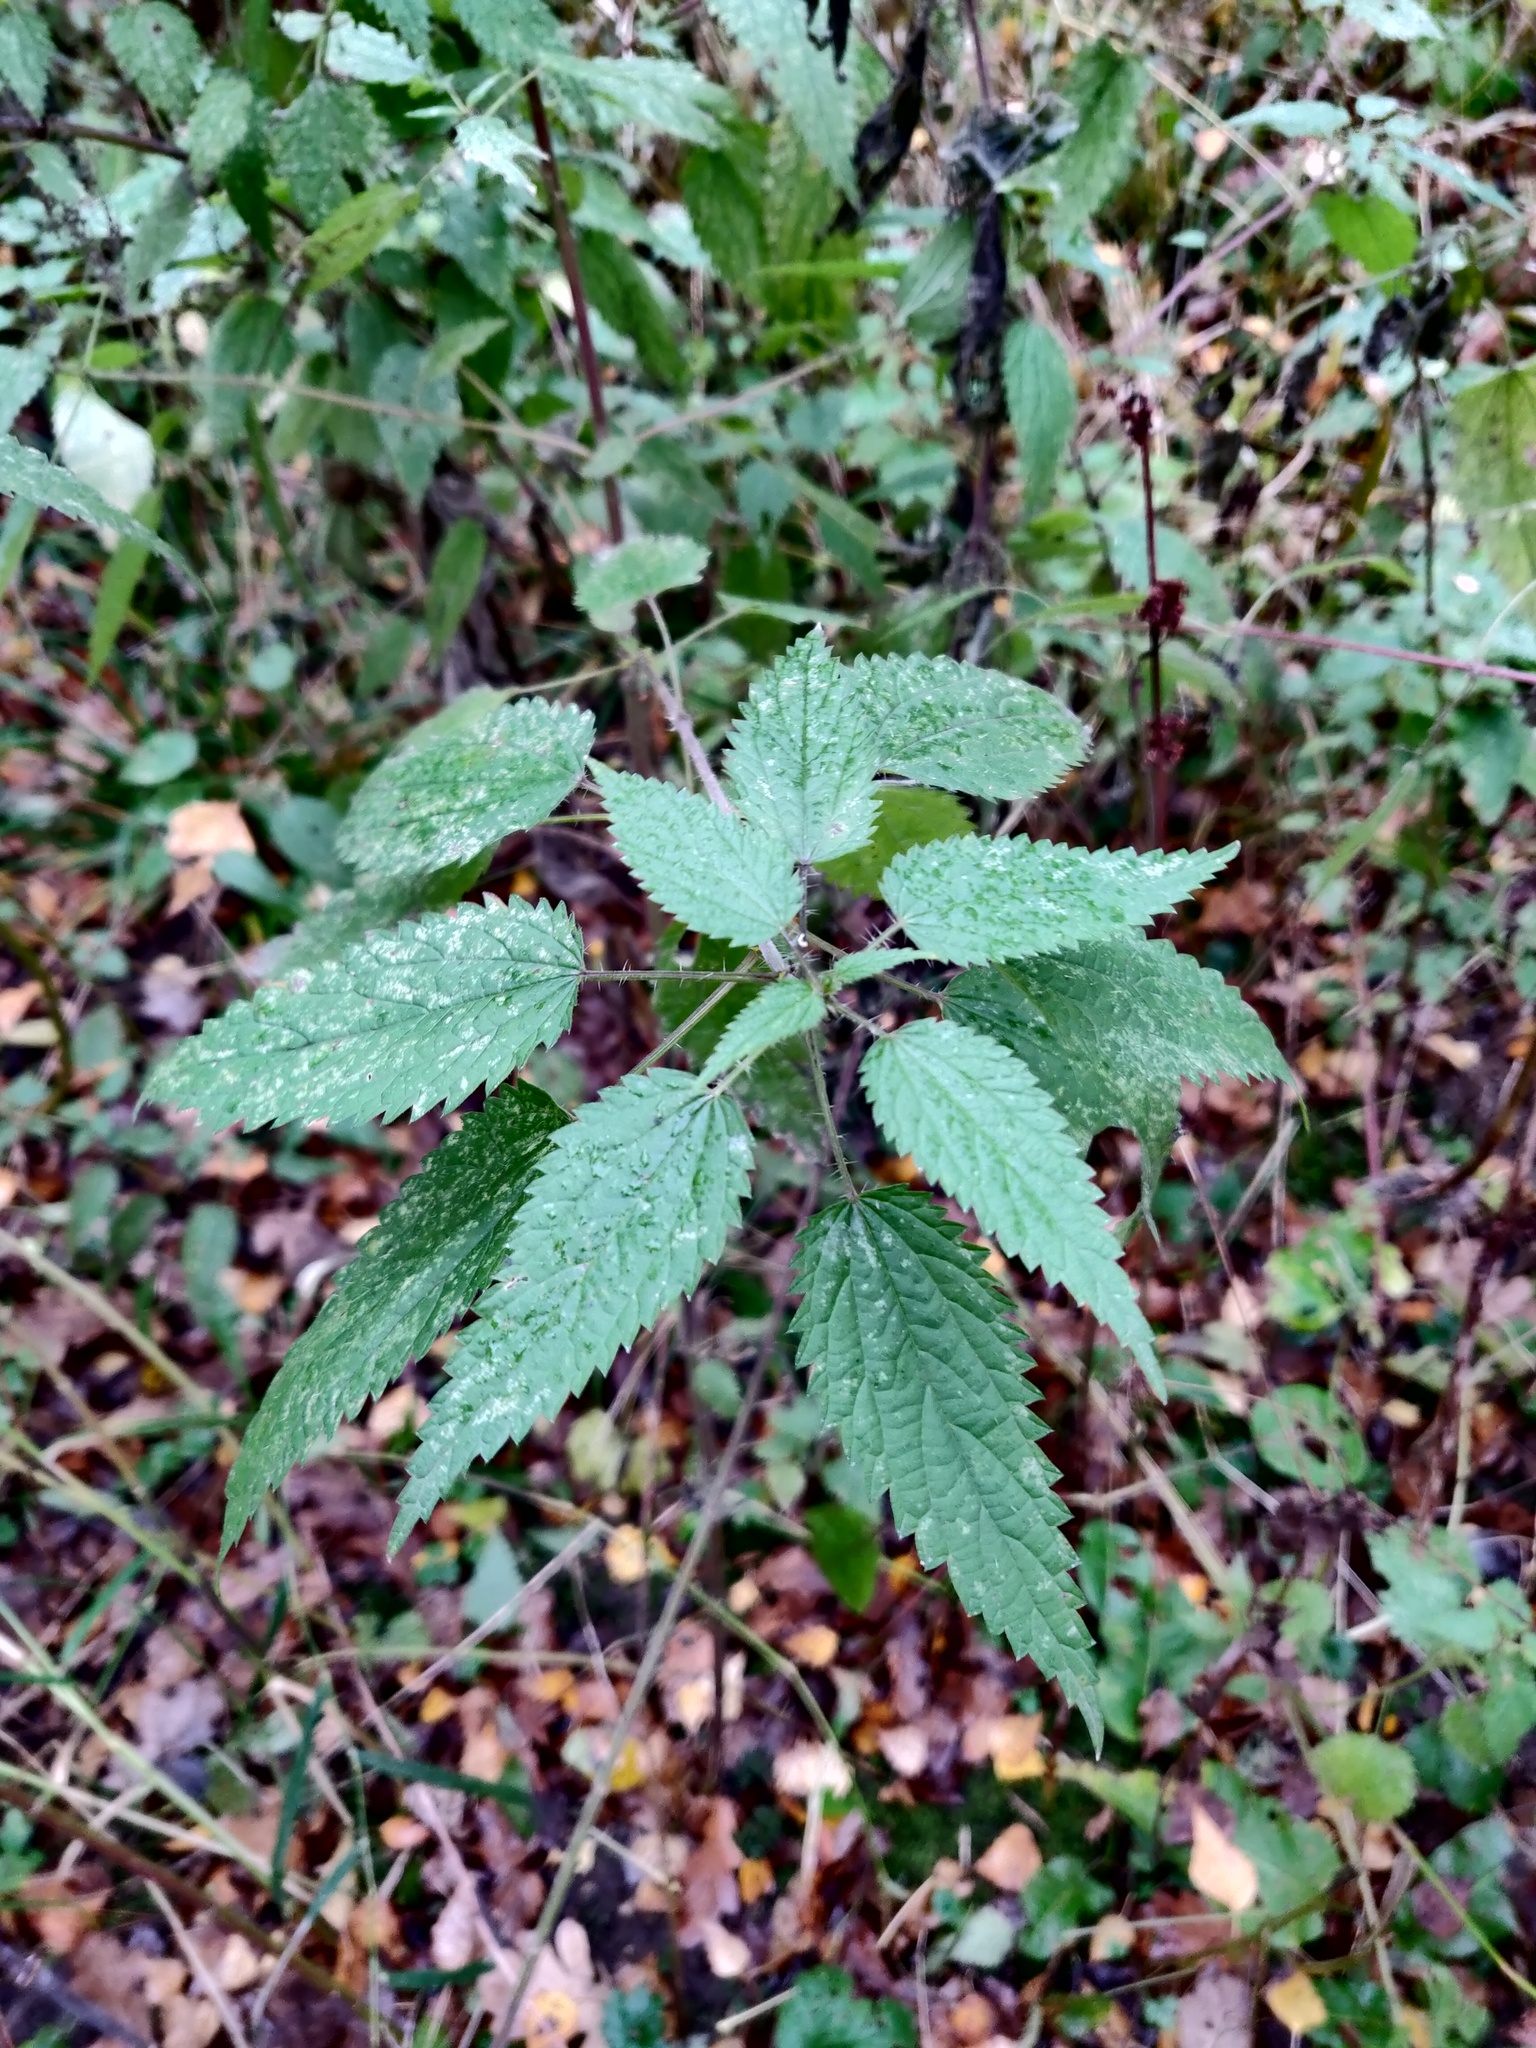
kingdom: Plantae
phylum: Tracheophyta
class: Magnoliopsida
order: Rosales
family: Urticaceae
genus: Urtica
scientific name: Urtica dioica
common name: Common nettle
